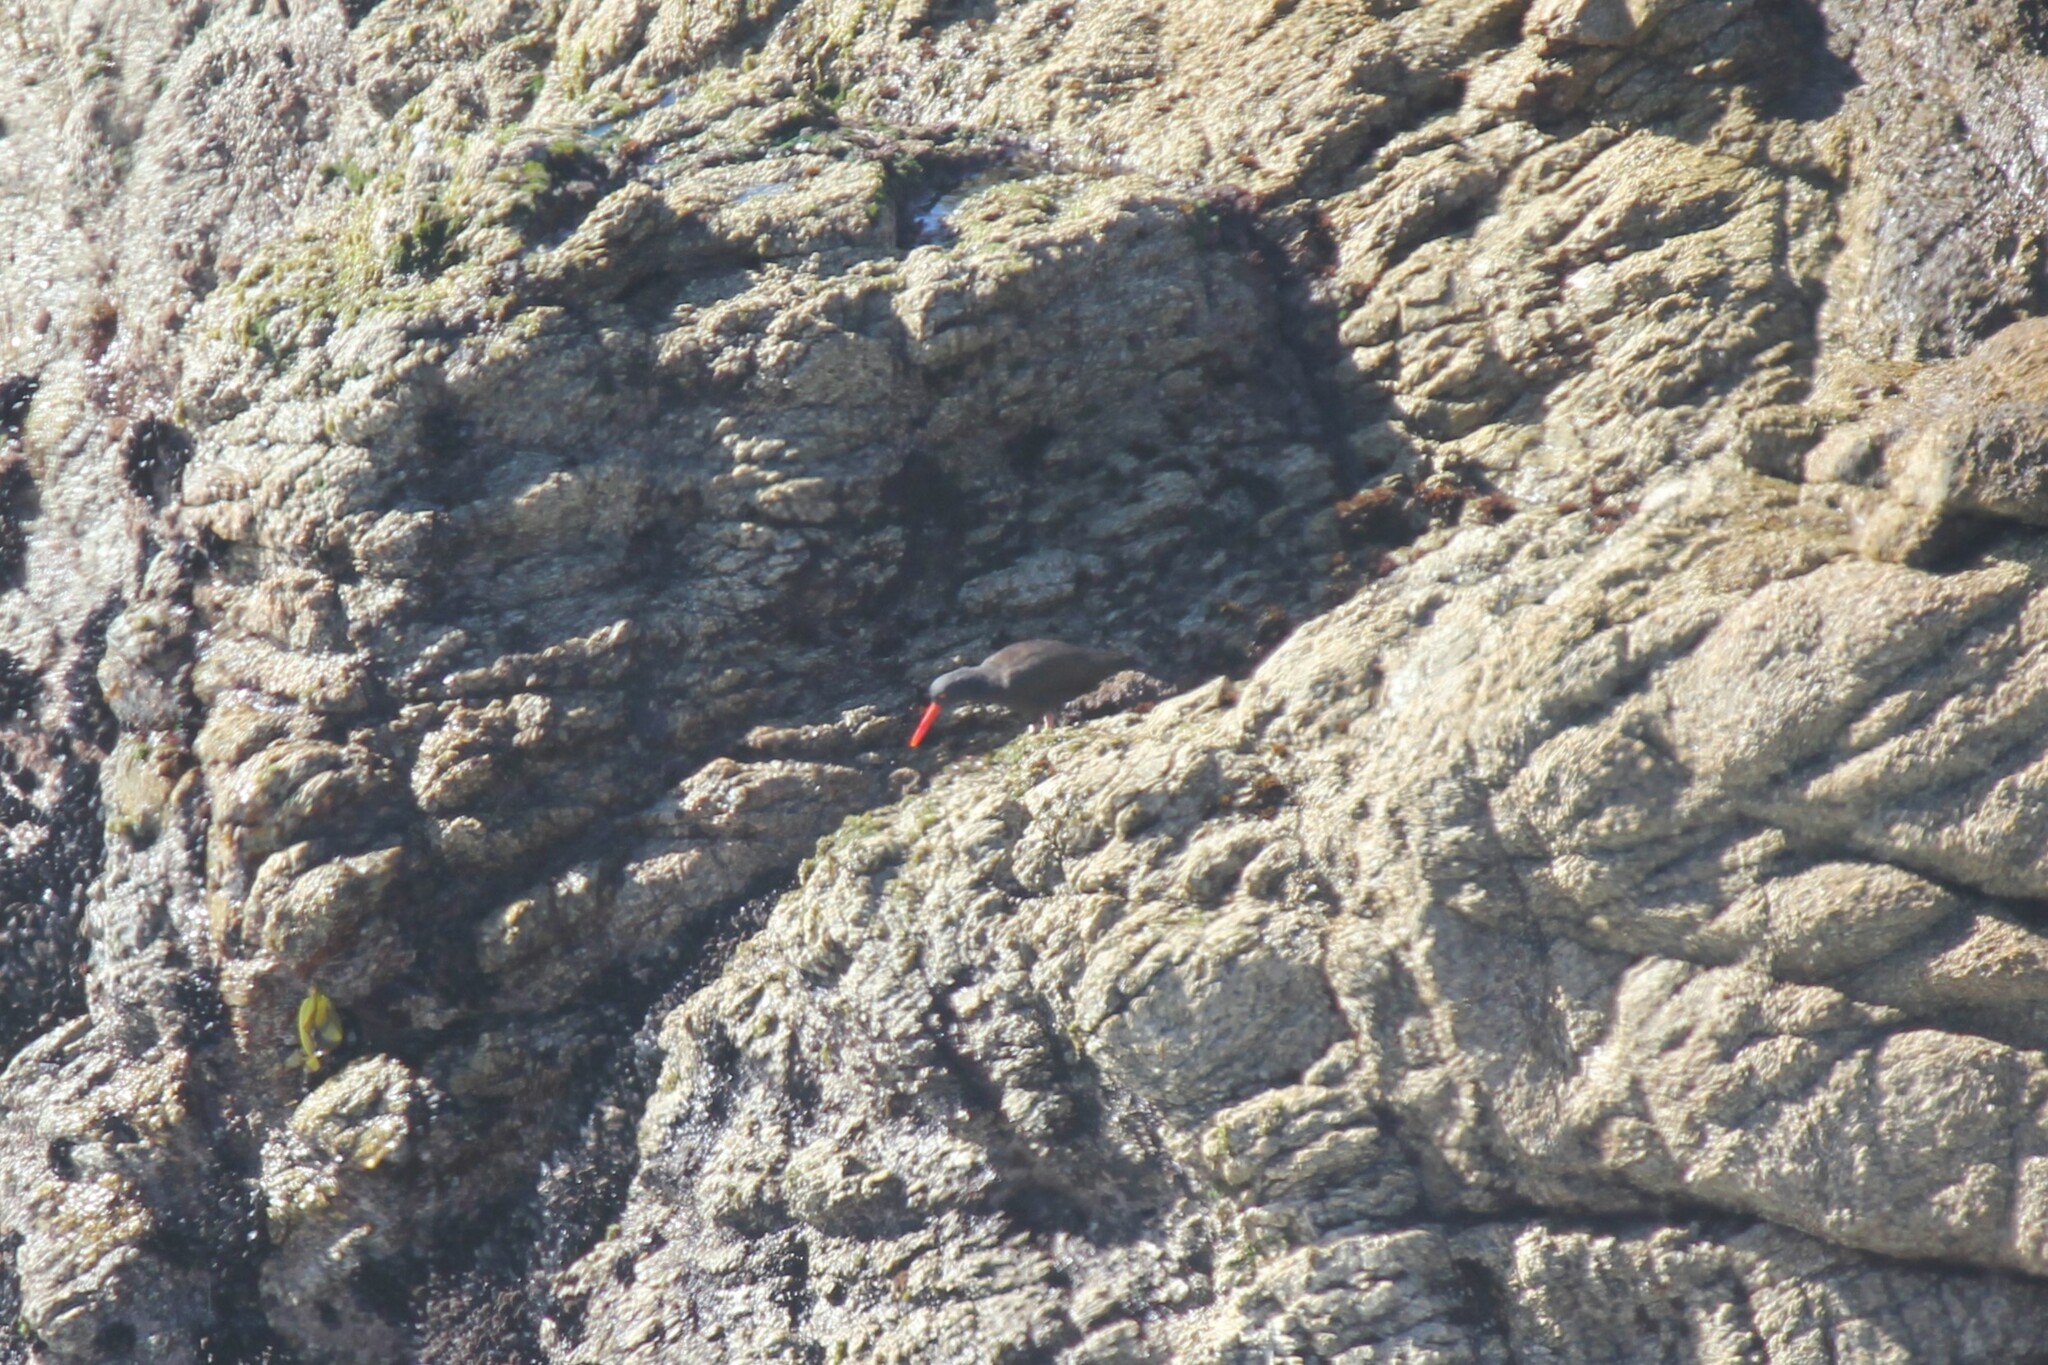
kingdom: Animalia
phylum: Chordata
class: Aves
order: Charadriiformes
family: Haematopodidae
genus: Haematopus
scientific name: Haematopus bachmani
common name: Black oystercatcher
